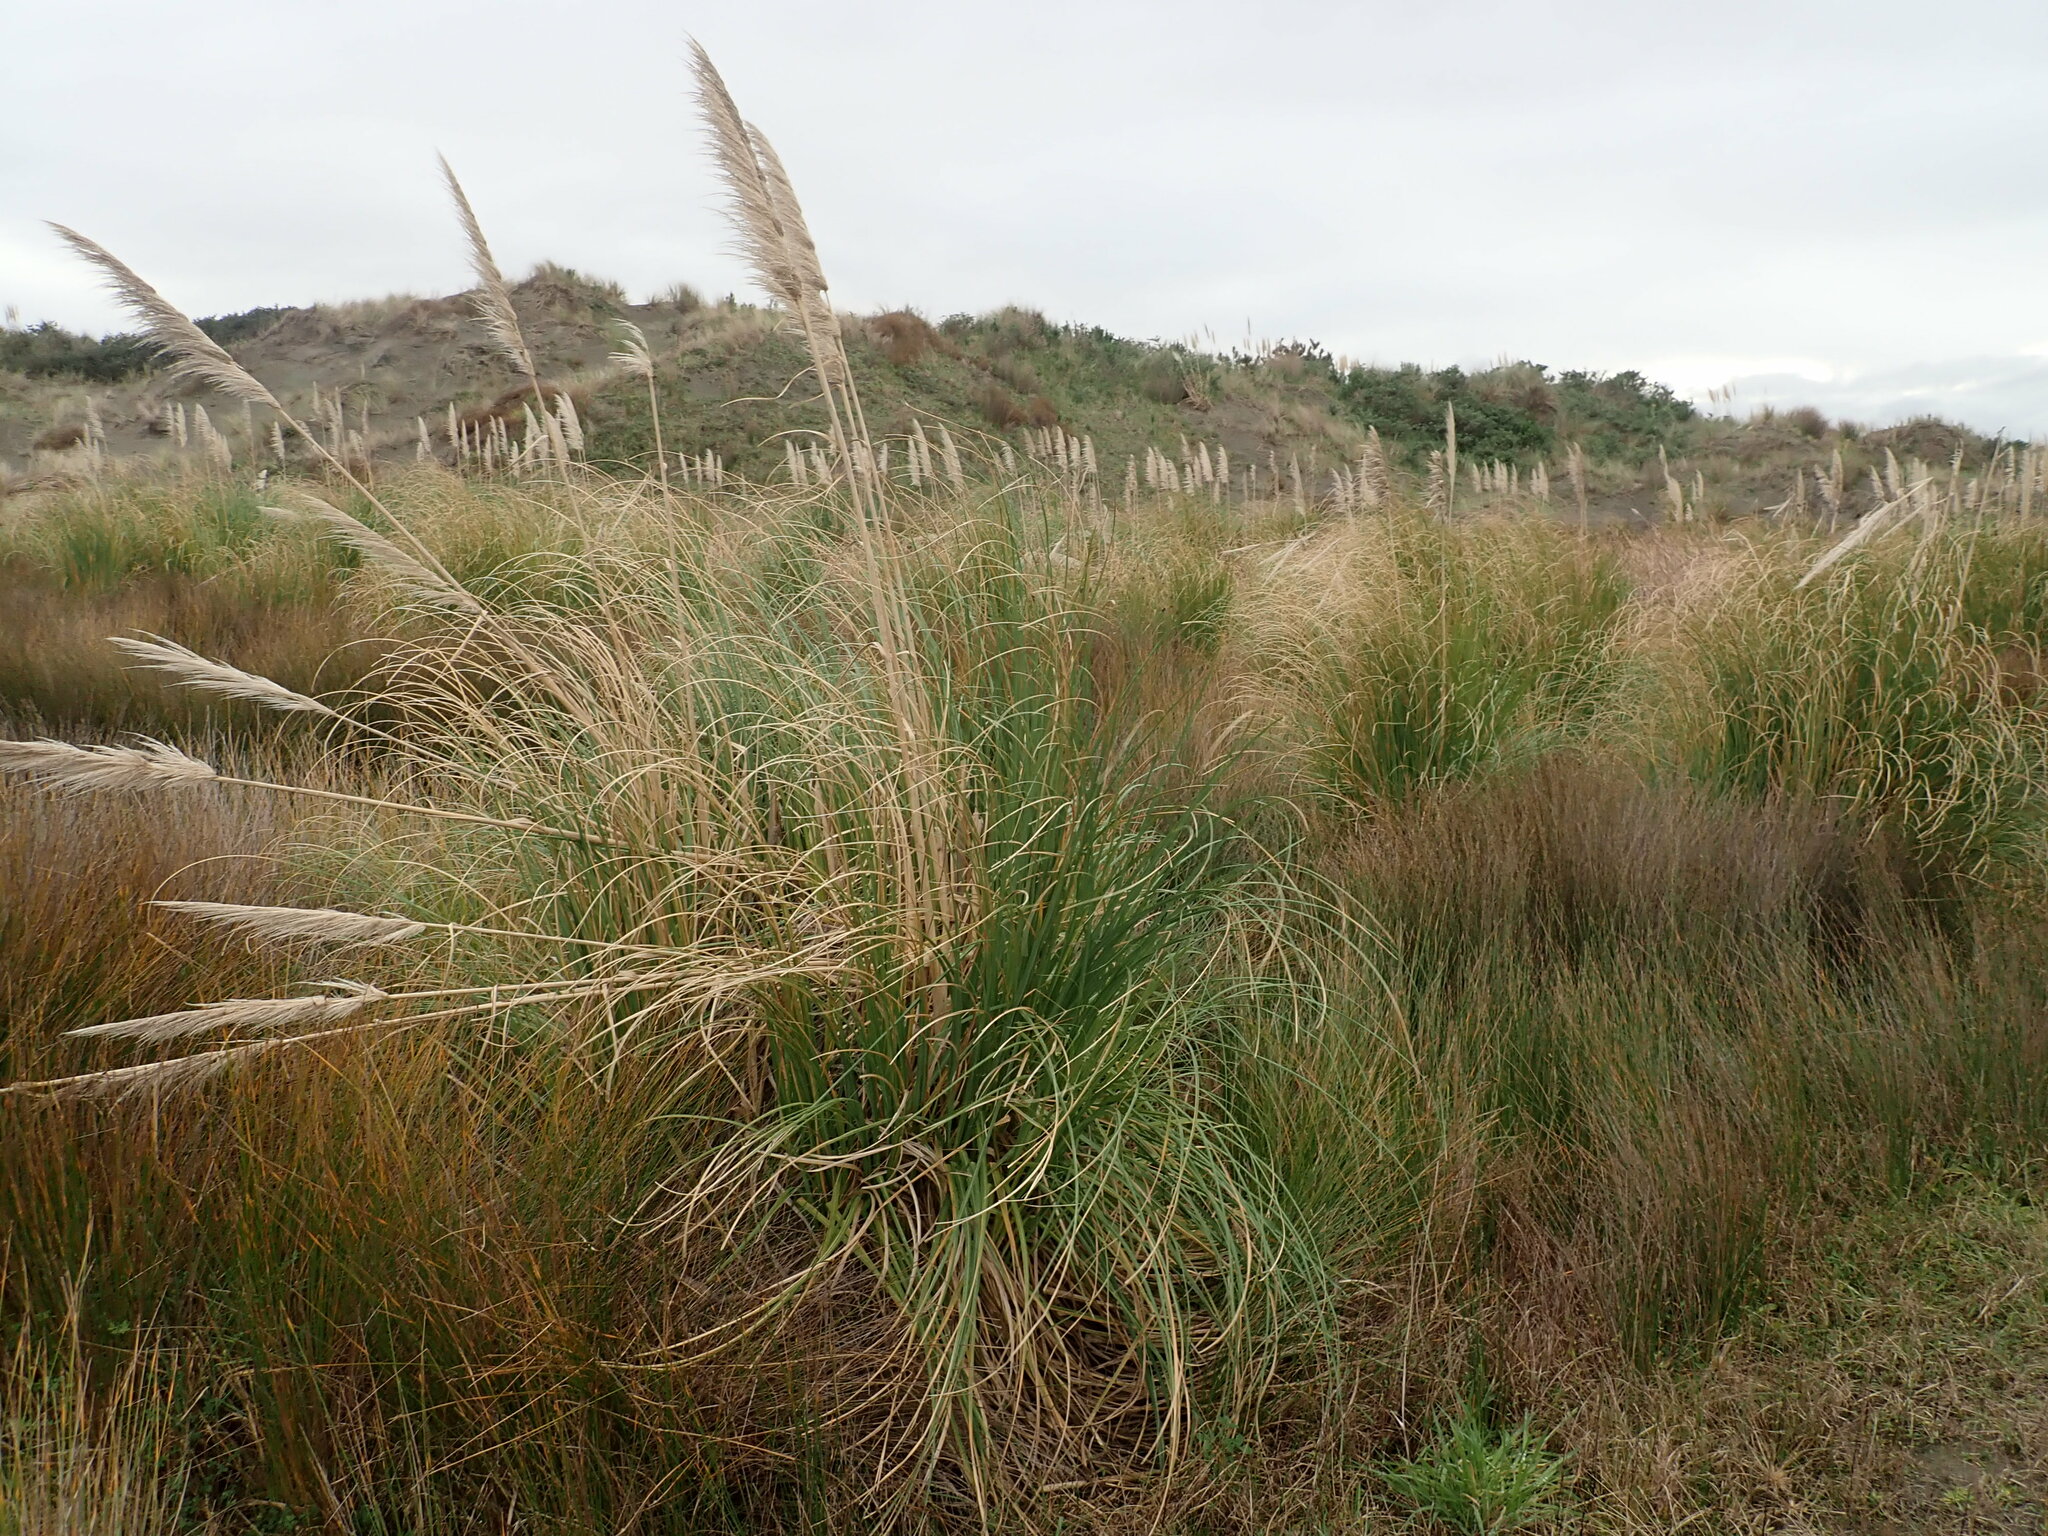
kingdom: Plantae
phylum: Tracheophyta
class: Liliopsida
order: Poales
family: Poaceae
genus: Cortaderia
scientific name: Cortaderia selloana
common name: Uruguayan pampas grass
